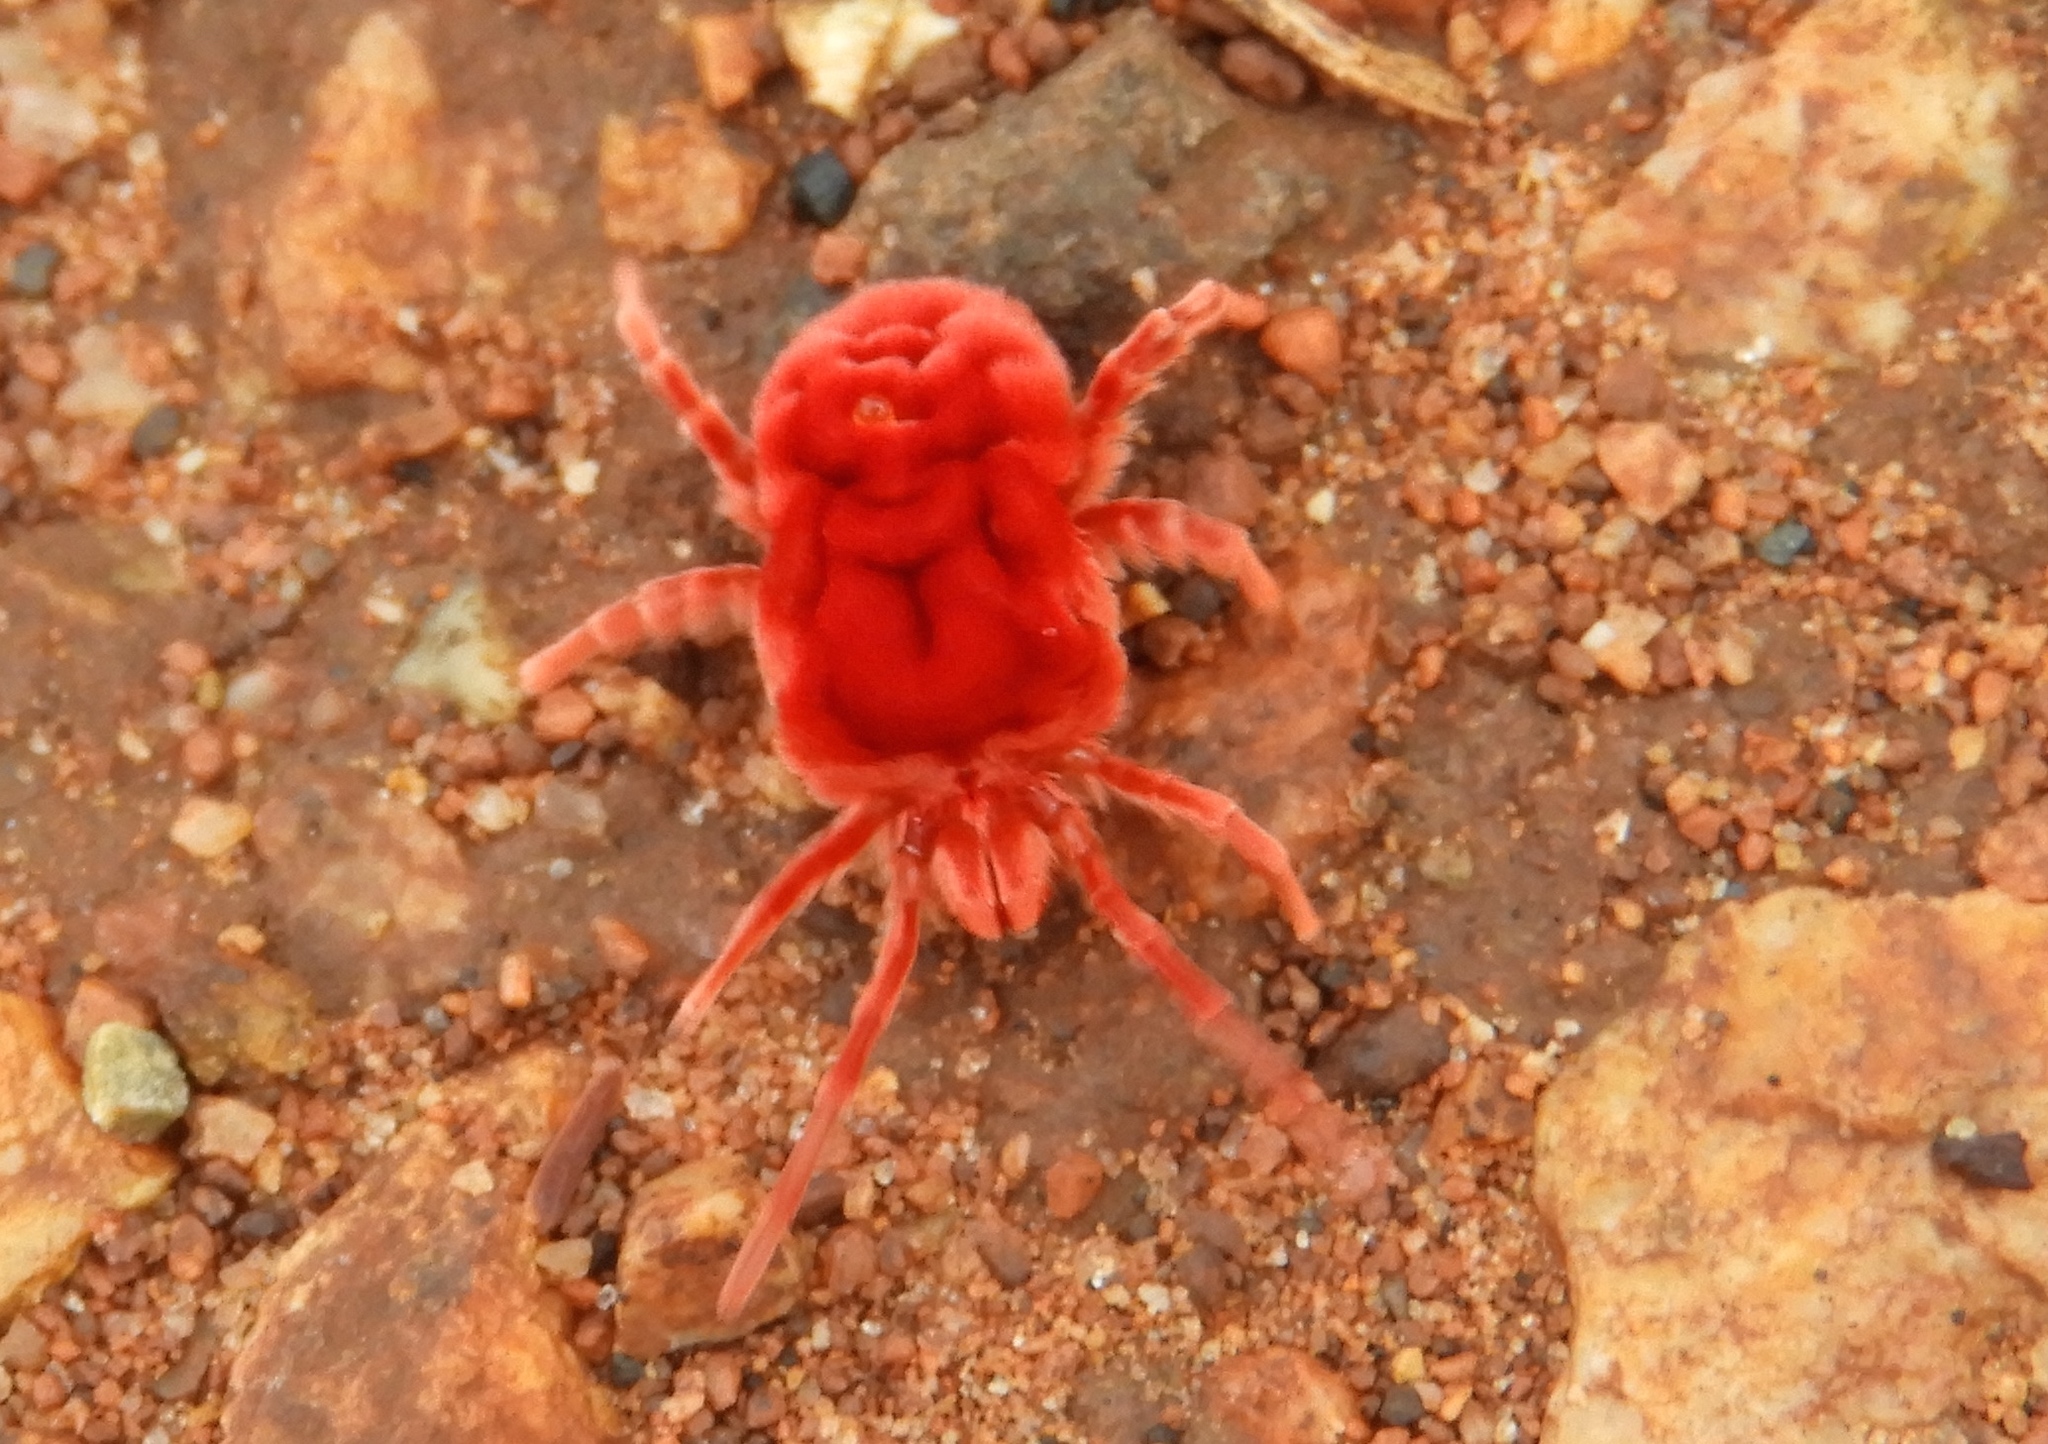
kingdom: Animalia
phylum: Arthropoda
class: Arachnida
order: Trombidiformes
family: Leeuwenhoekiidae
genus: Dinothrombium
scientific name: Dinothrombium
